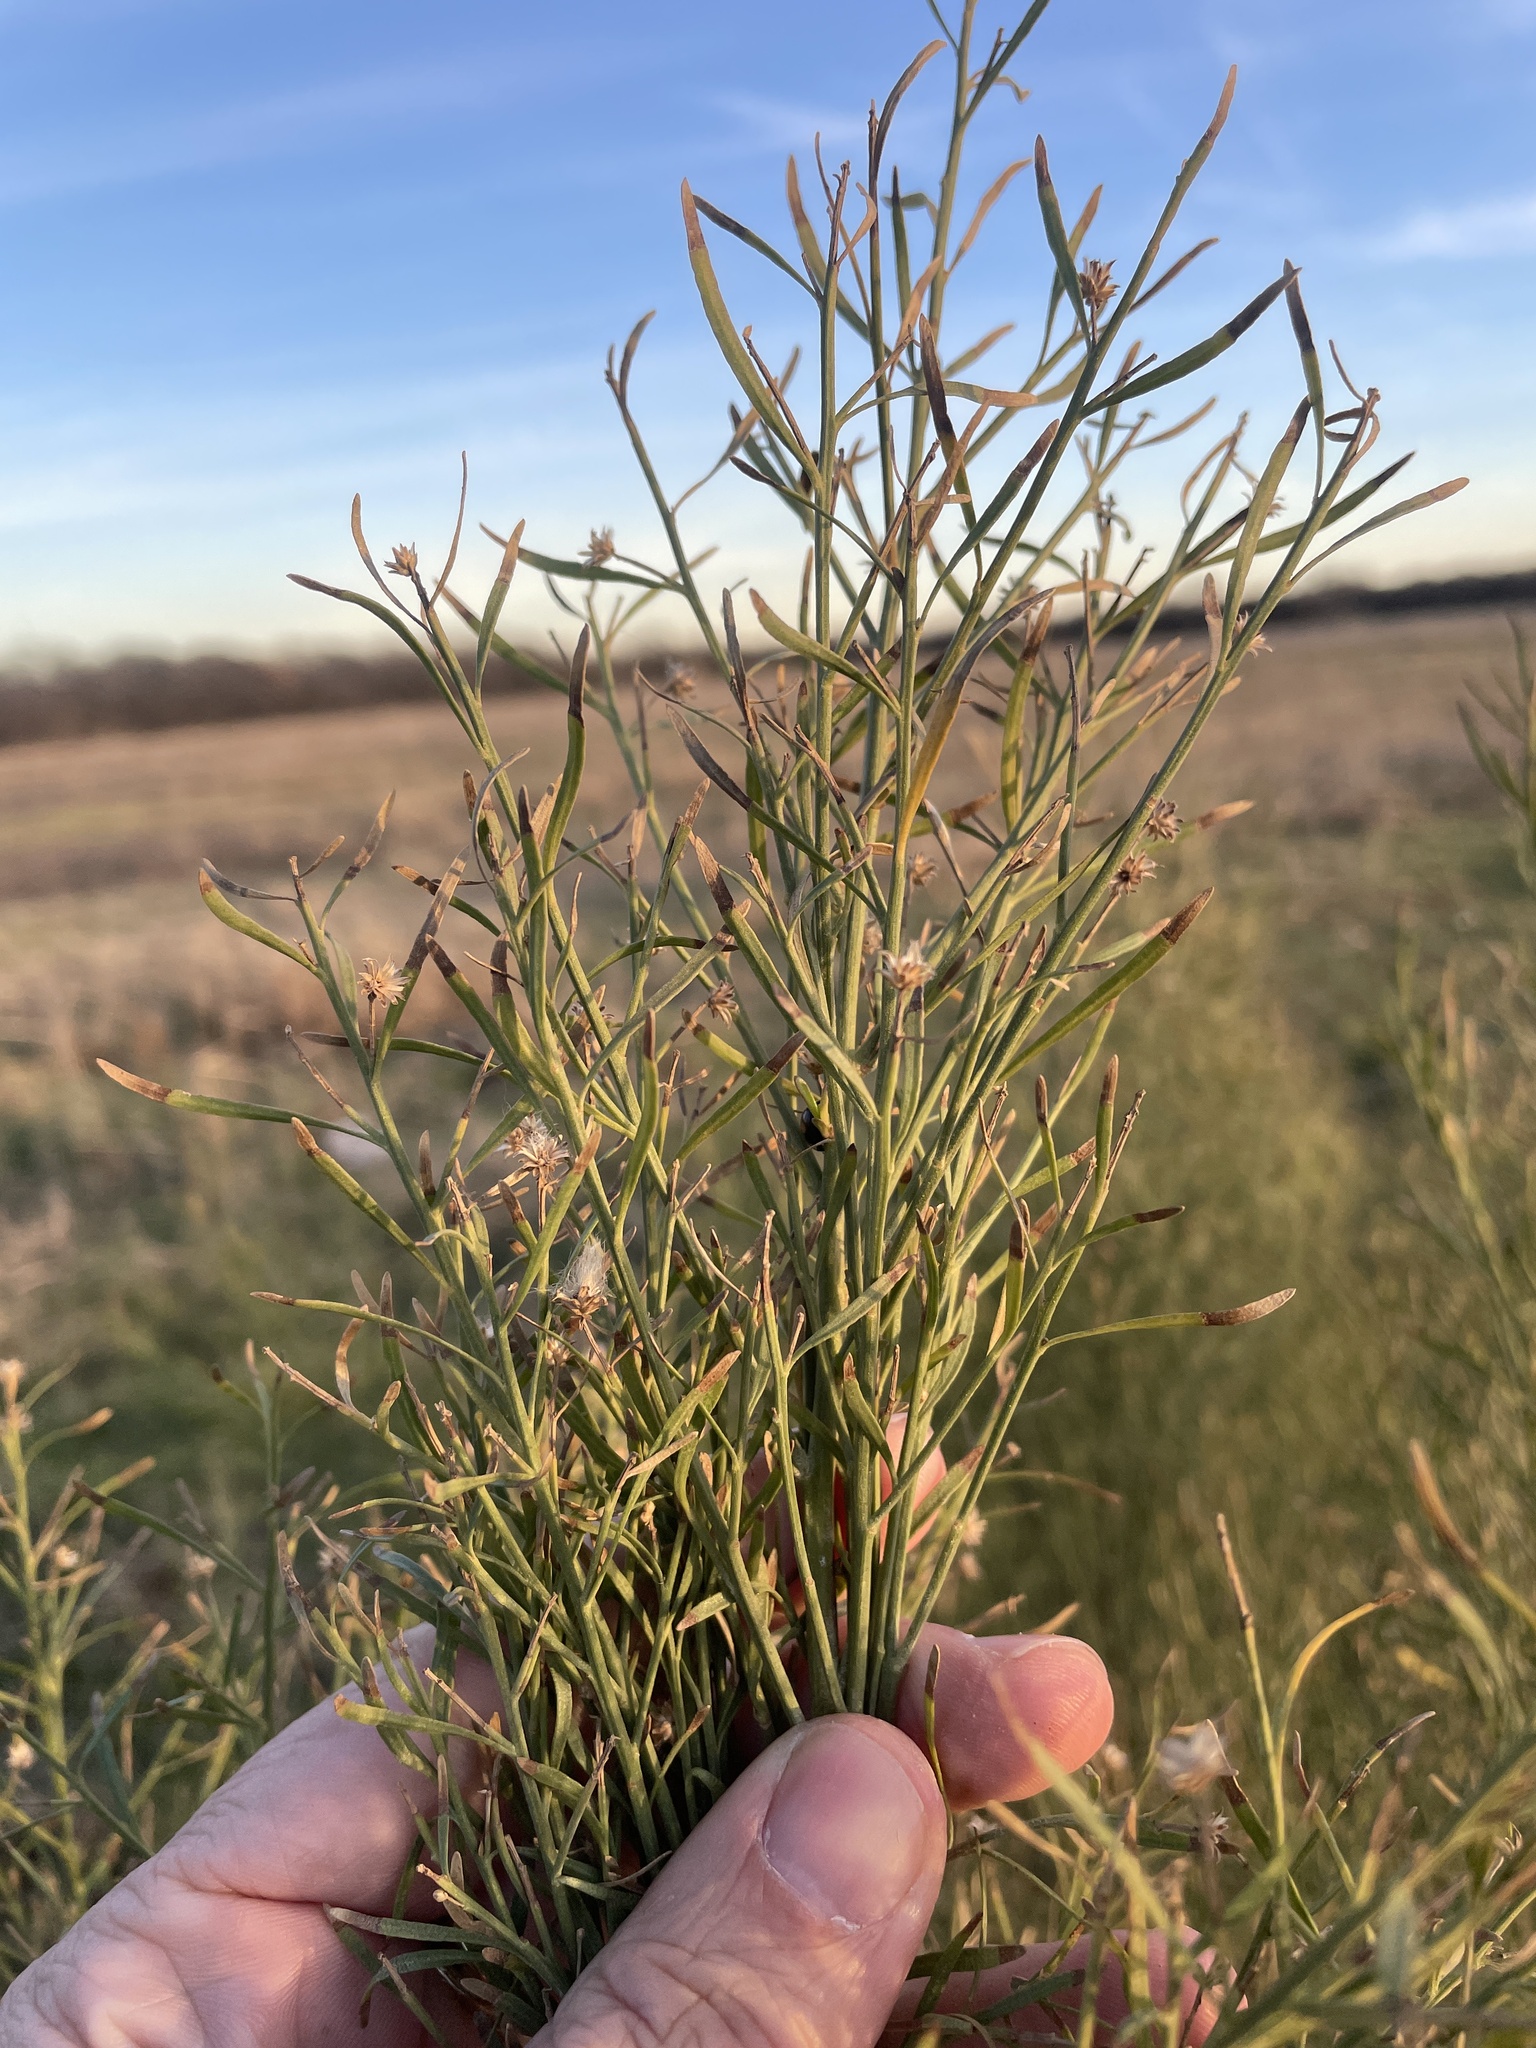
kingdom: Plantae
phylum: Tracheophyta
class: Magnoliopsida
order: Asterales
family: Asteraceae
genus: Baccharis
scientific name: Baccharis neglecta
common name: Roosevelt-weed
